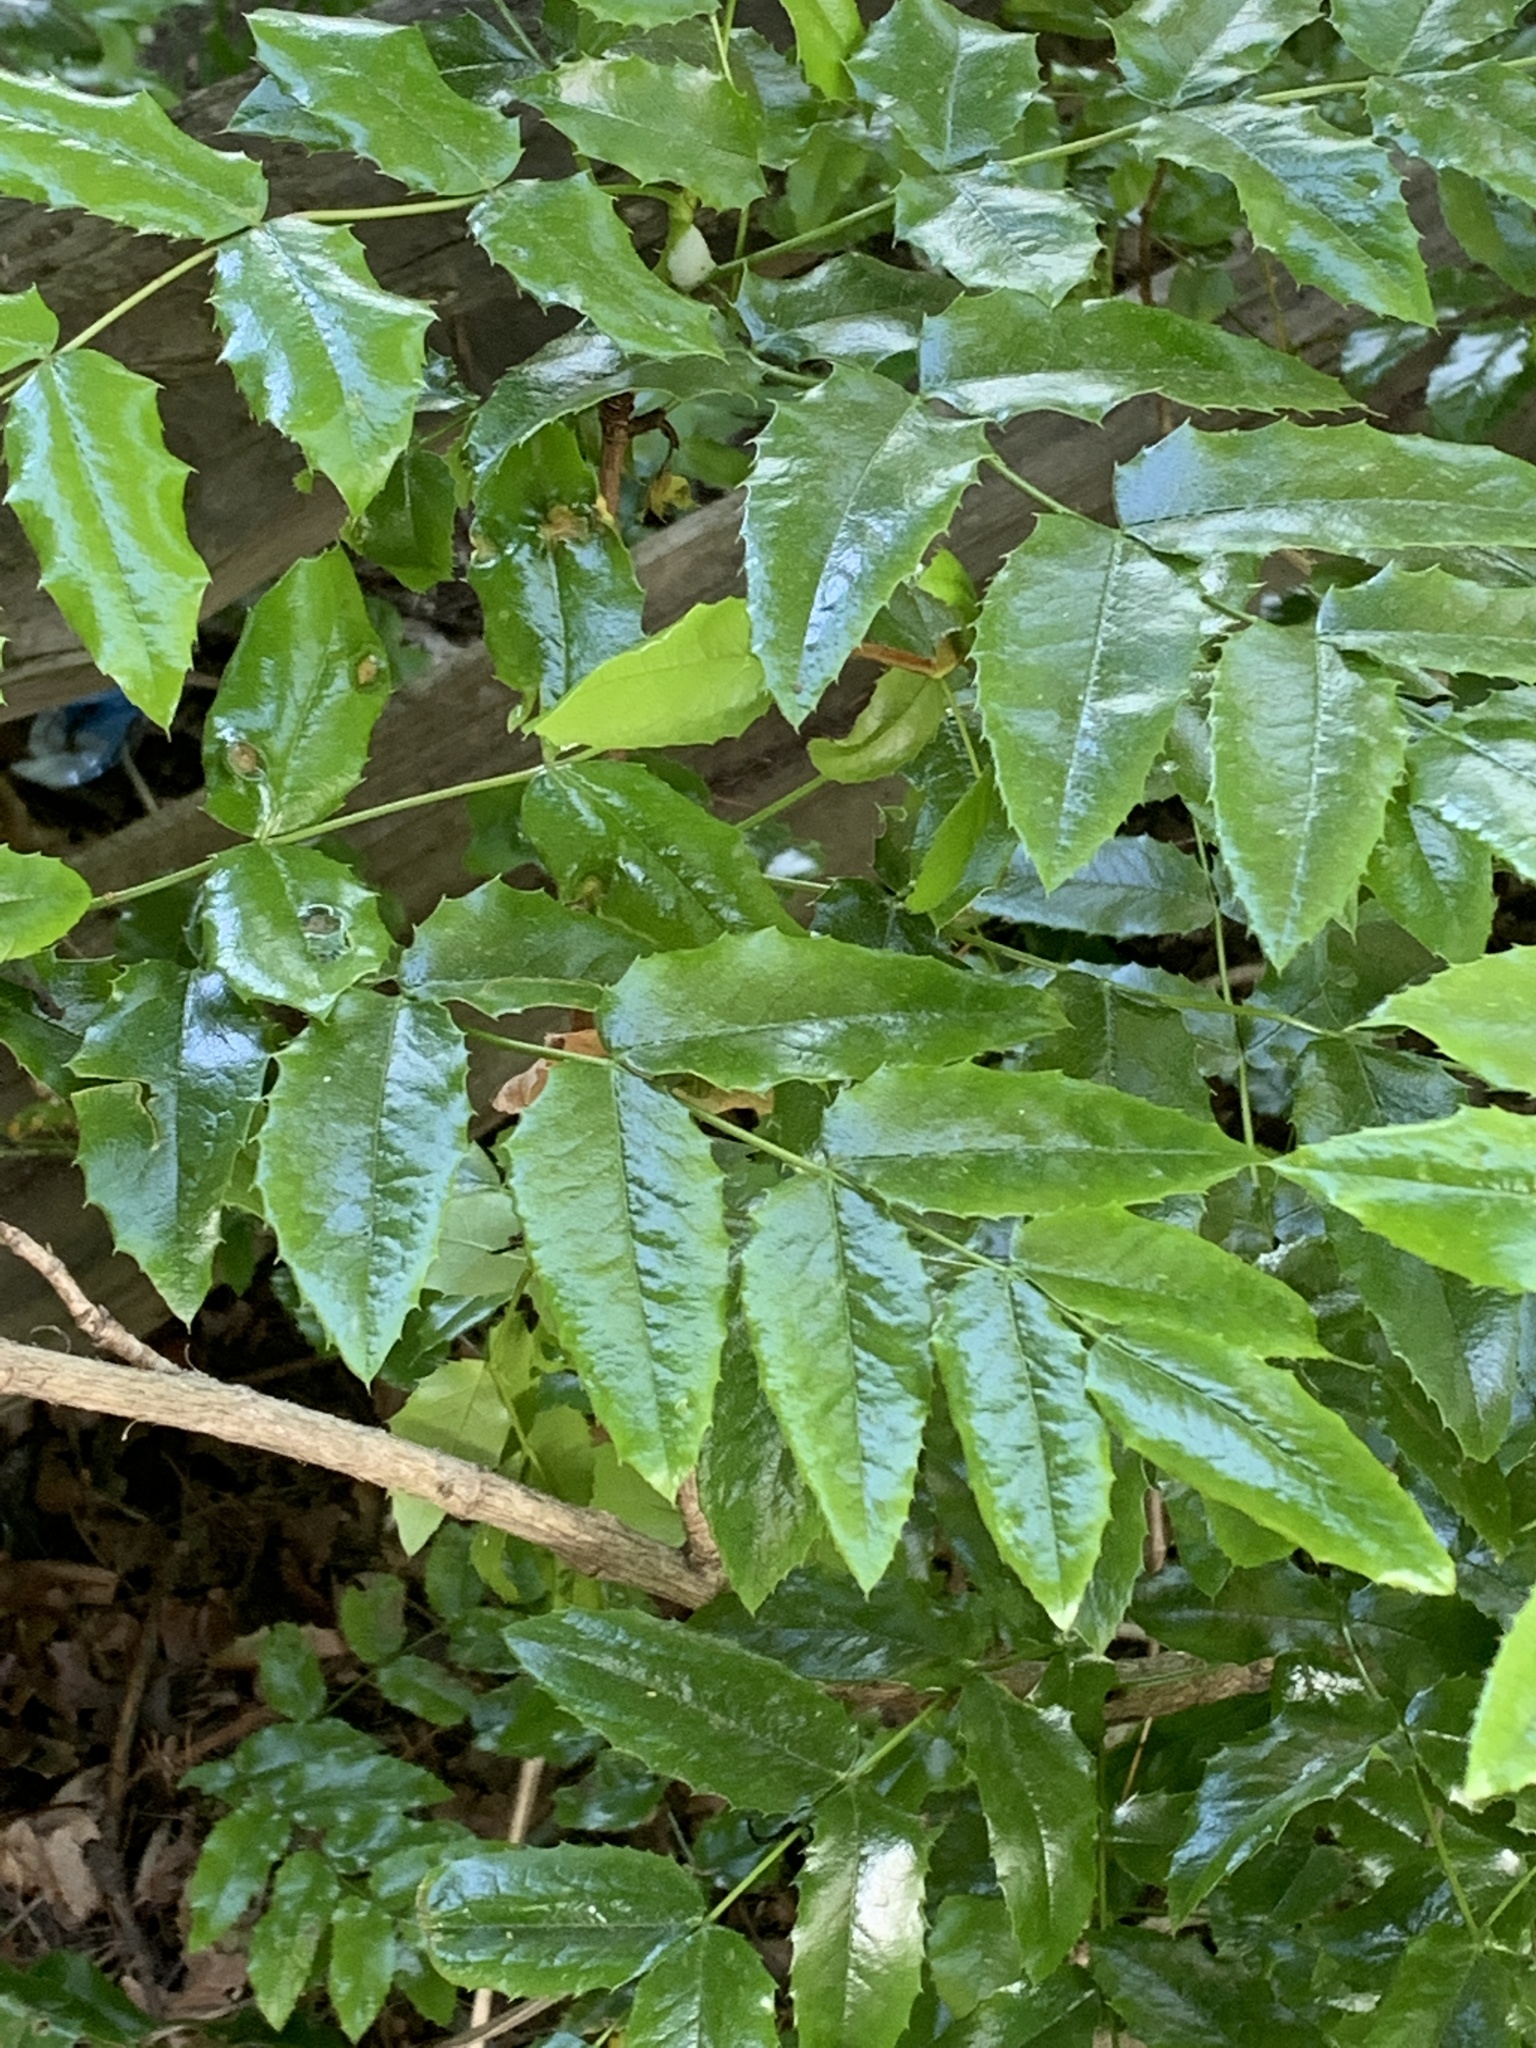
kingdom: Plantae
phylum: Tracheophyta
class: Magnoliopsida
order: Ranunculales
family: Berberidaceae
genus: Mahonia
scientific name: Mahonia aquifolium
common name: Oregon-grape
